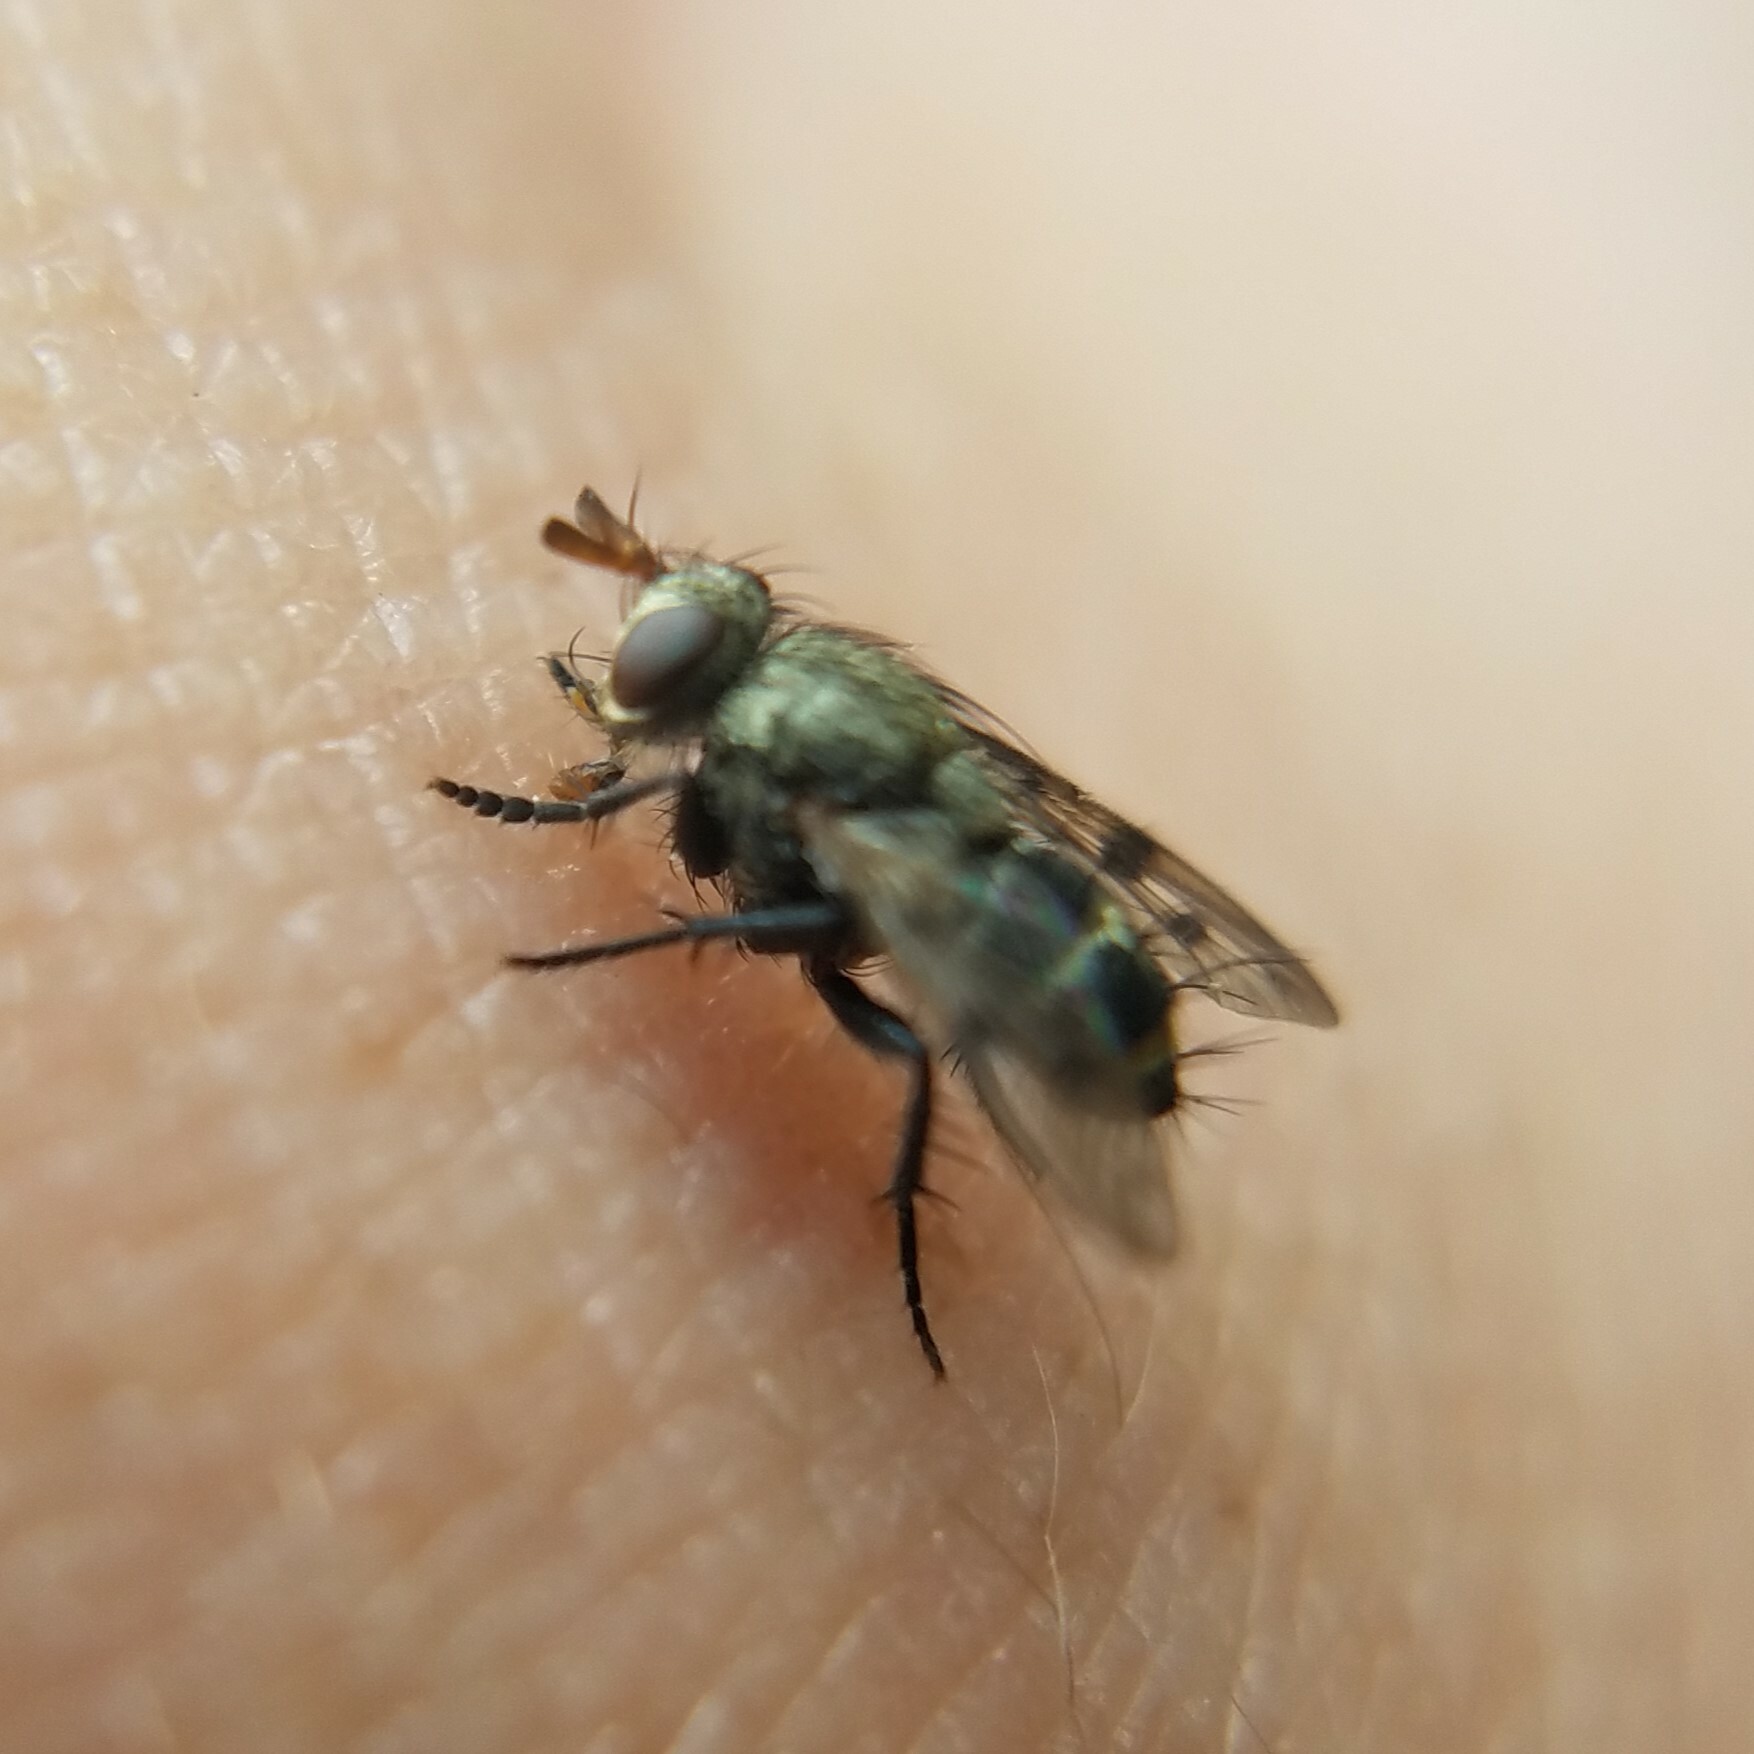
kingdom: Animalia
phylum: Arthropoda
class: Insecta
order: Diptera
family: Tachinidae
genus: Lypha
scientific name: Lypha harringtoni
